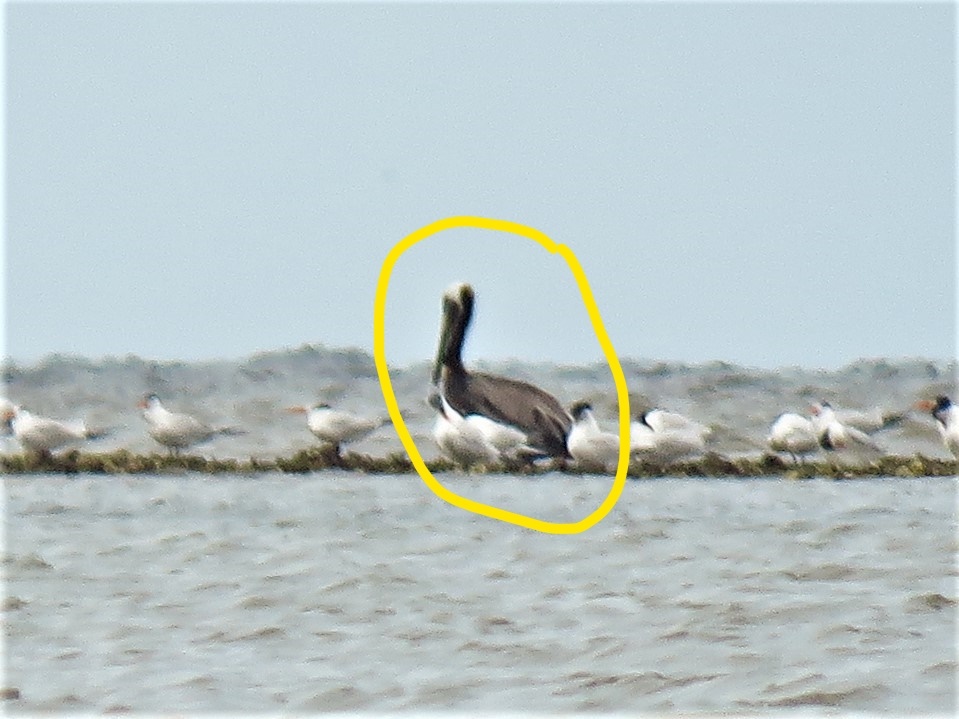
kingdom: Animalia
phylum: Chordata
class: Aves
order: Pelecaniformes
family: Pelecanidae
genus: Pelecanus
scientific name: Pelecanus occidentalis
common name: Brown pelican
